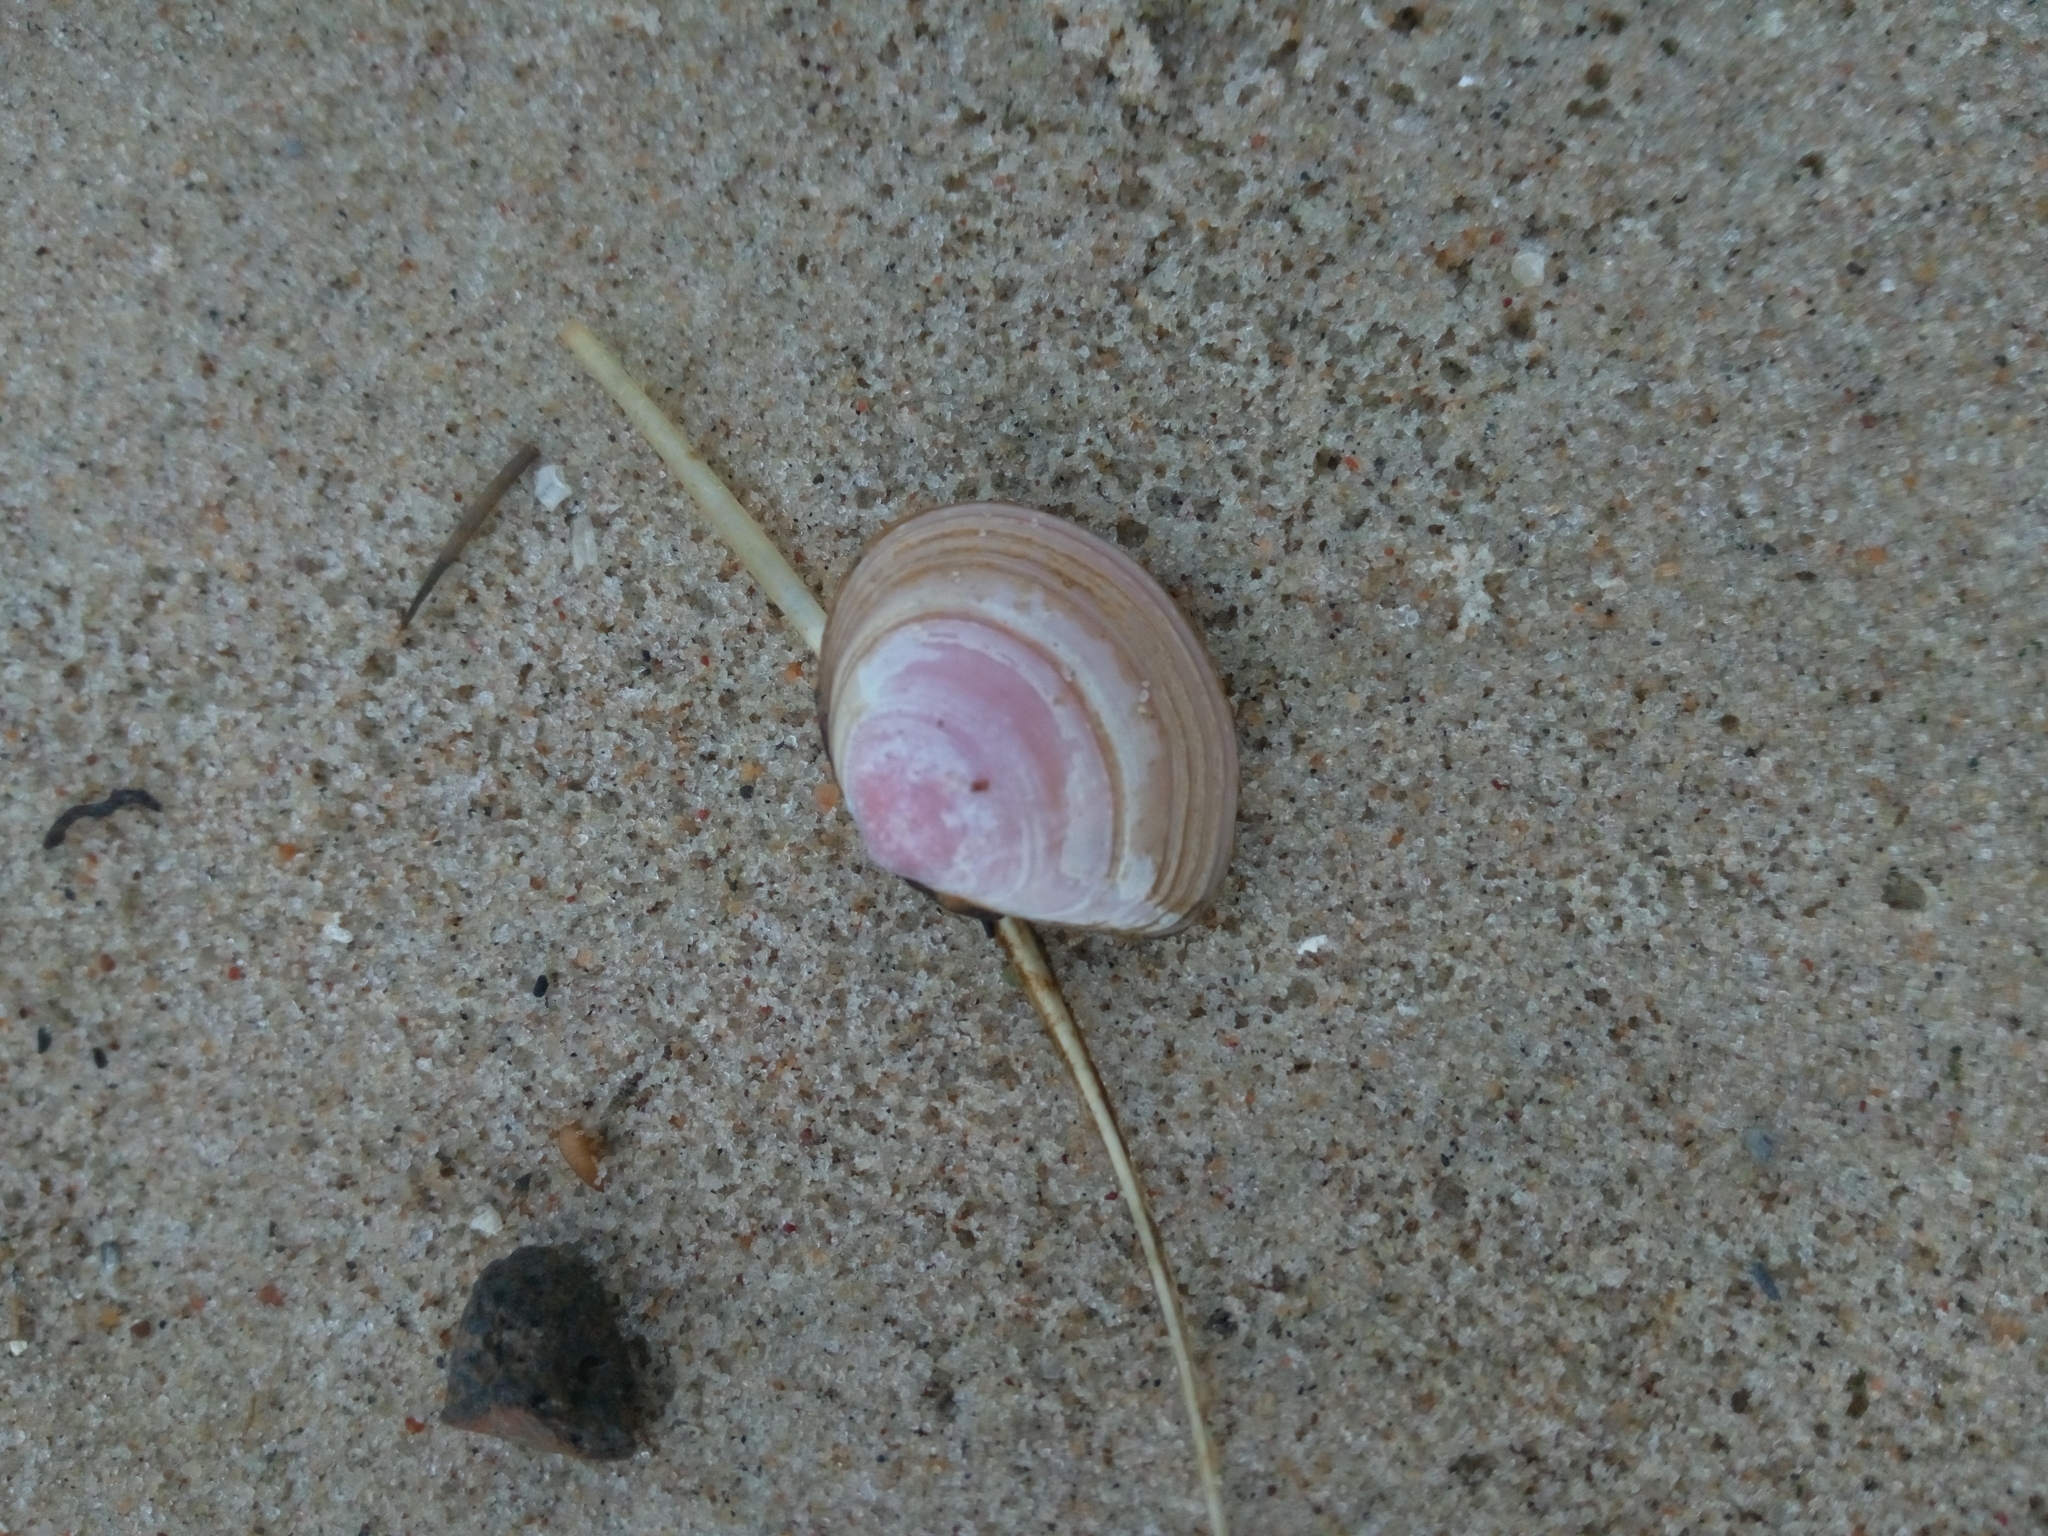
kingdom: Animalia
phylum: Mollusca
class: Bivalvia
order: Cardiida
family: Tellinidae
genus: Macoma
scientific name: Macoma balthica
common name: Baltic tellin
